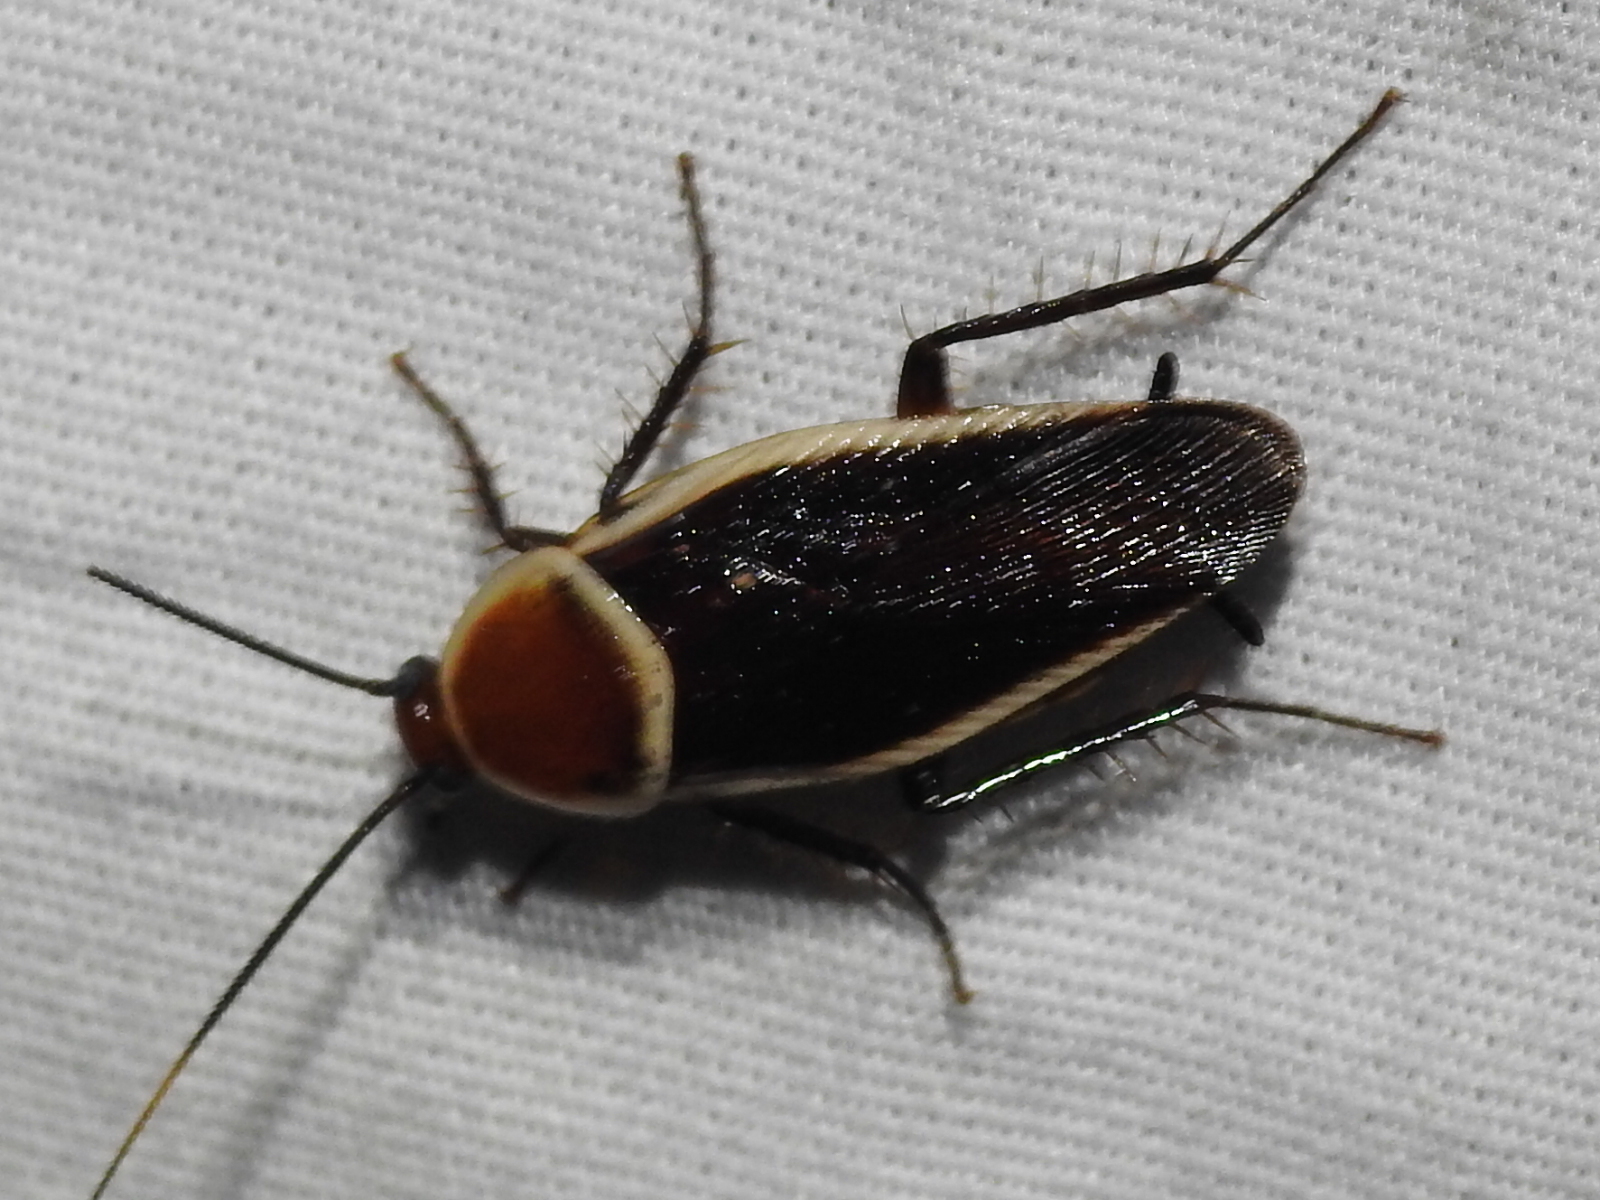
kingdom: Animalia
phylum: Arthropoda
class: Insecta
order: Blattodea
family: Ectobiidae
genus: Pseudomops
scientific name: Pseudomops septentrionalis
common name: Pale-bordered field cockroach
